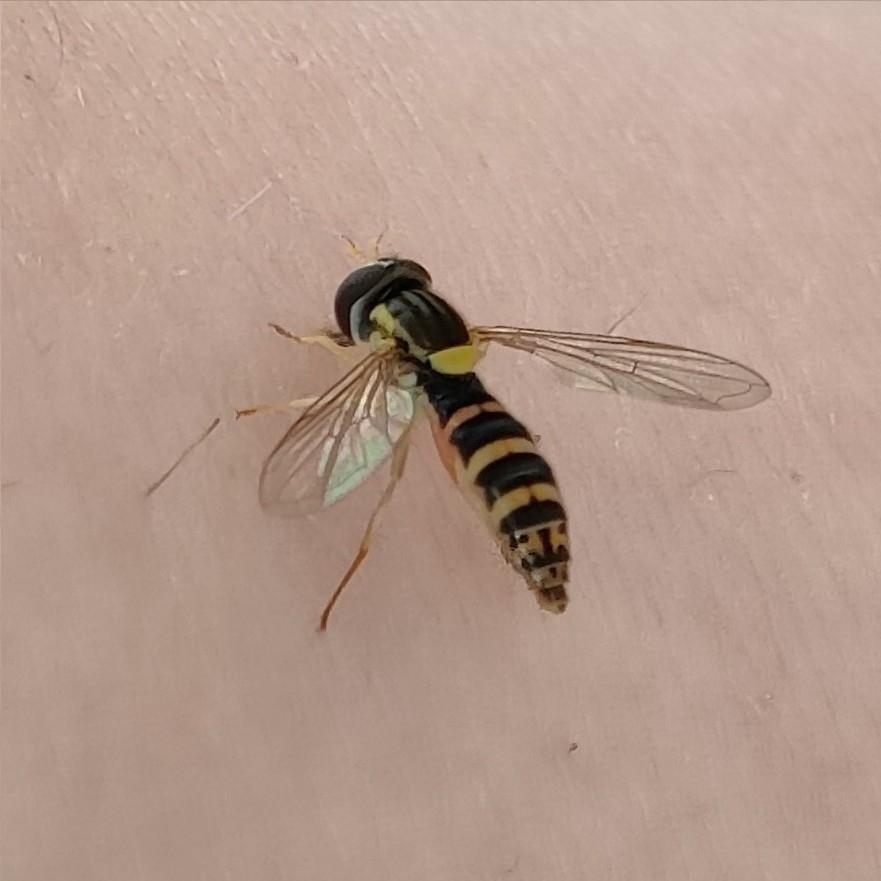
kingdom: Animalia
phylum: Arthropoda
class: Insecta
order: Diptera
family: Syrphidae
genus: Sphaerophoria
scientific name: Sphaerophoria
